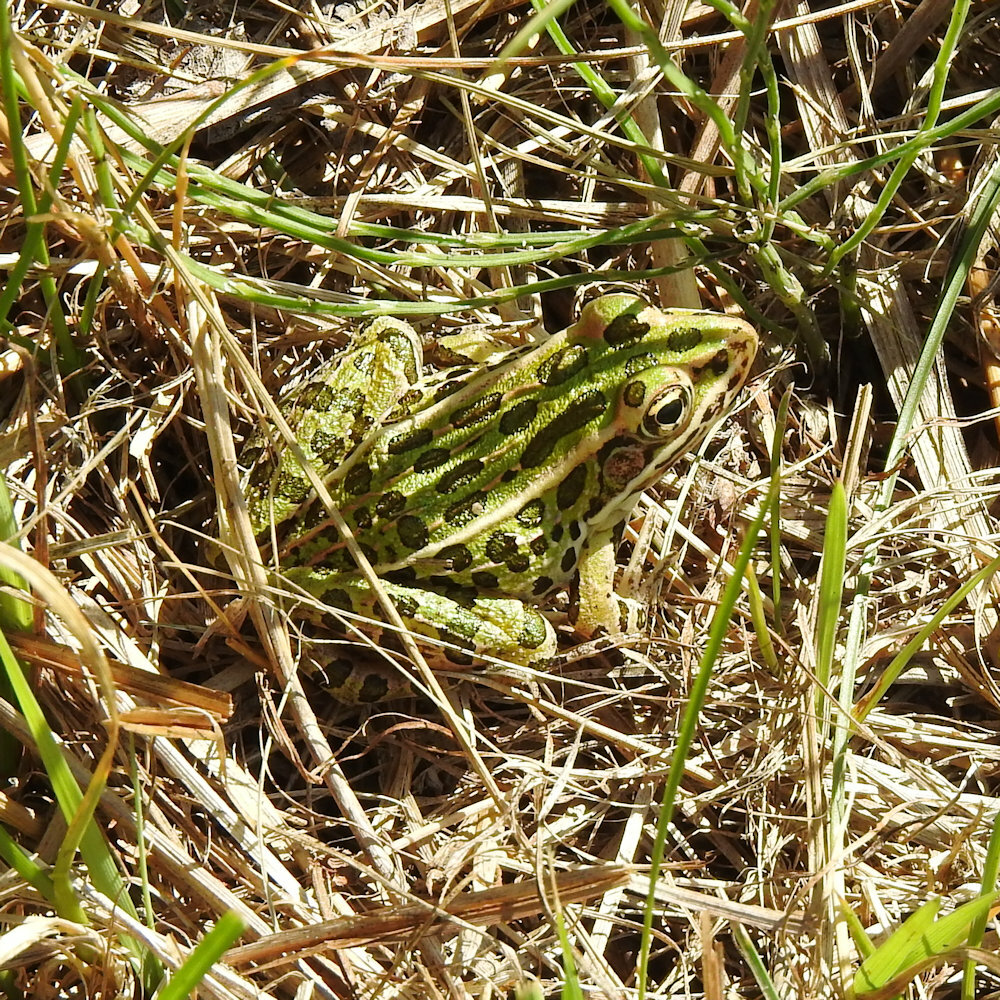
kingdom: Animalia
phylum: Chordata
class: Amphibia
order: Anura
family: Ranidae
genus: Lithobates
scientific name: Lithobates pipiens
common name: Northern leopard frog
